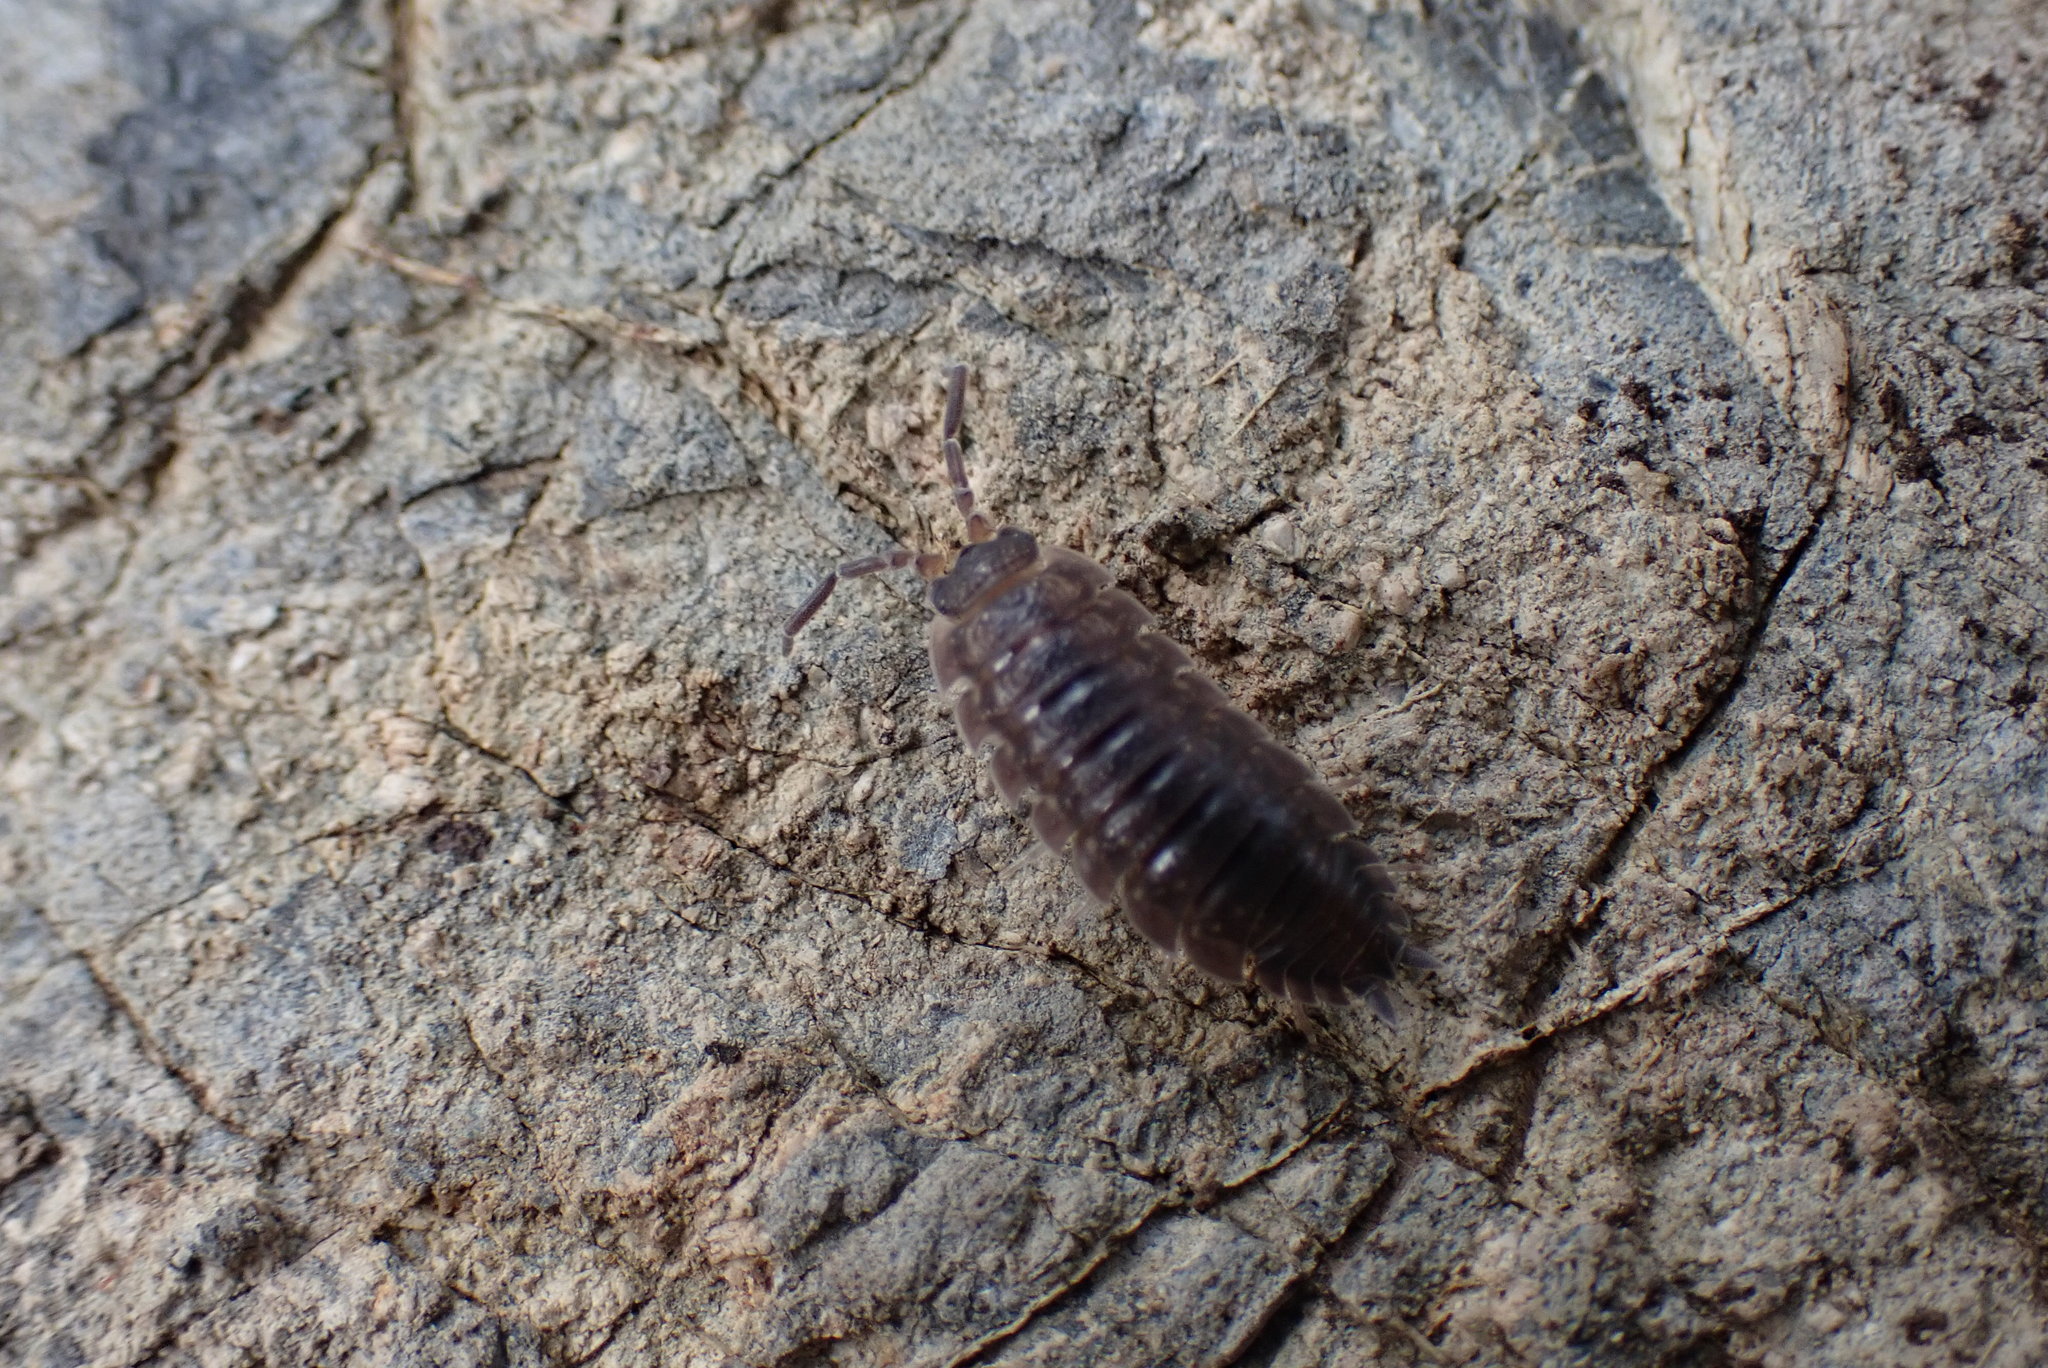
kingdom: Animalia
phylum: Arthropoda
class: Malacostraca
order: Isopoda
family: Porcellionidae
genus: Porcellio
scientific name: Porcellio scaber
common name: Common rough woodlouse
